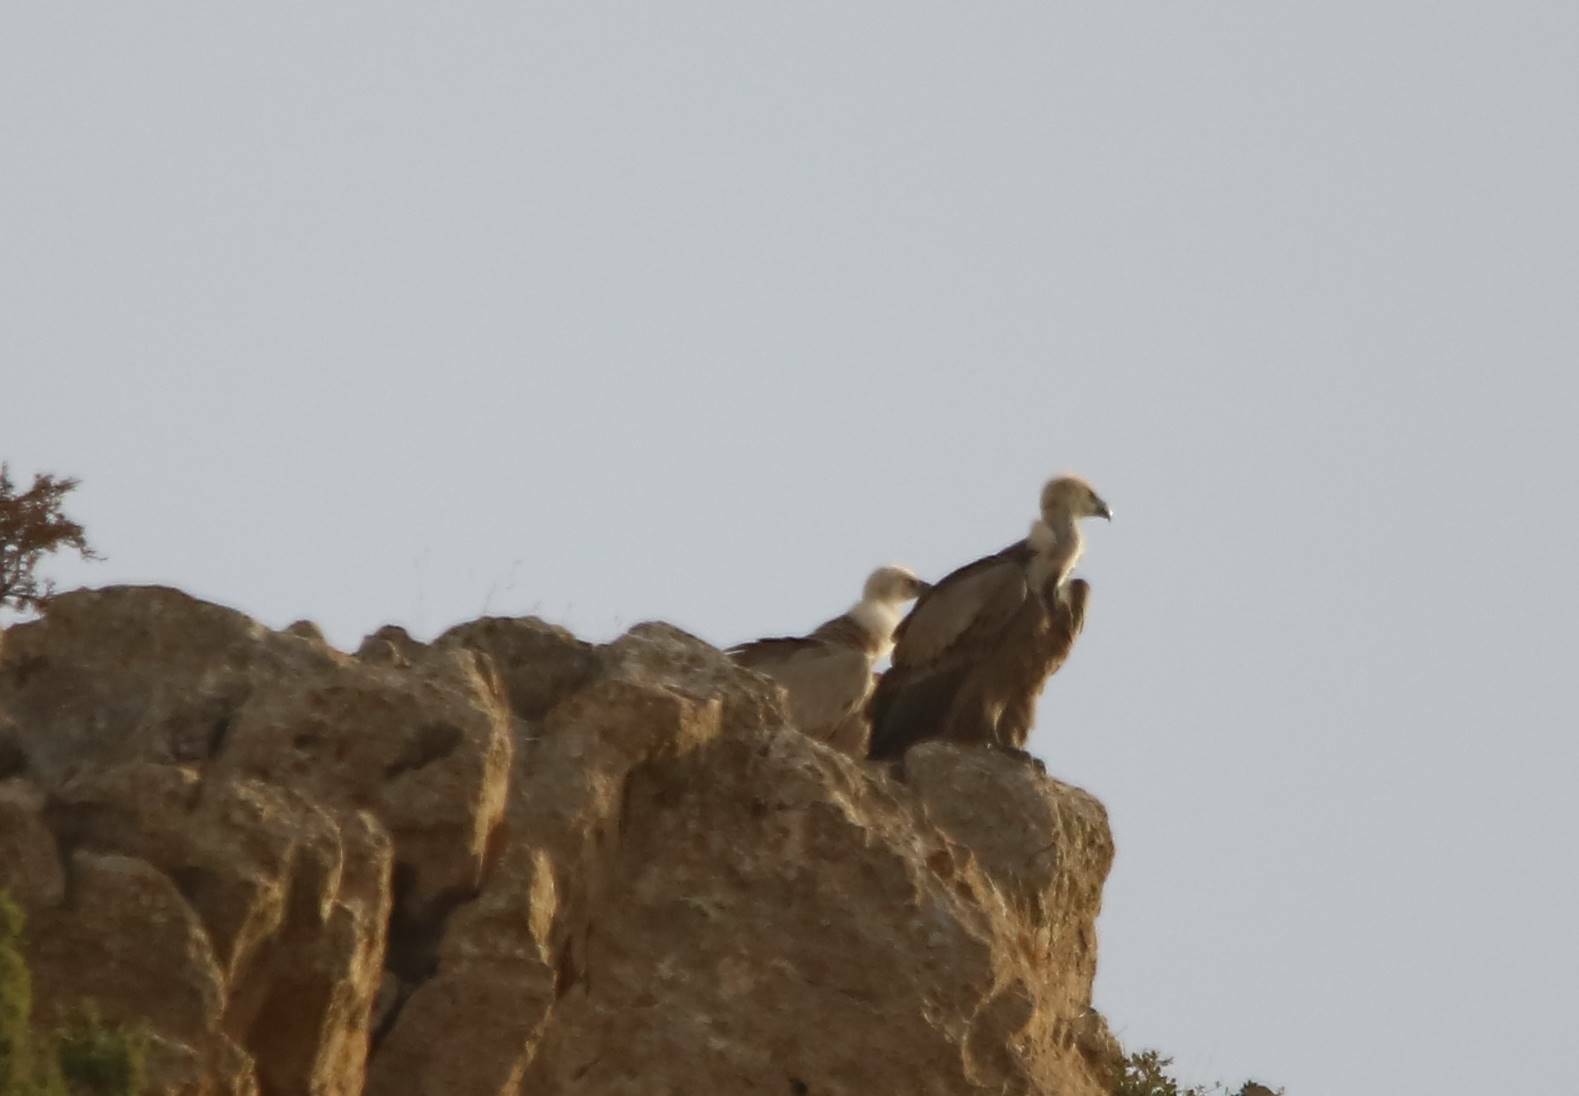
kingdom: Animalia
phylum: Chordata
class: Aves
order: Accipitriformes
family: Accipitridae
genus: Gyps
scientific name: Gyps fulvus
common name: Griffon vulture
